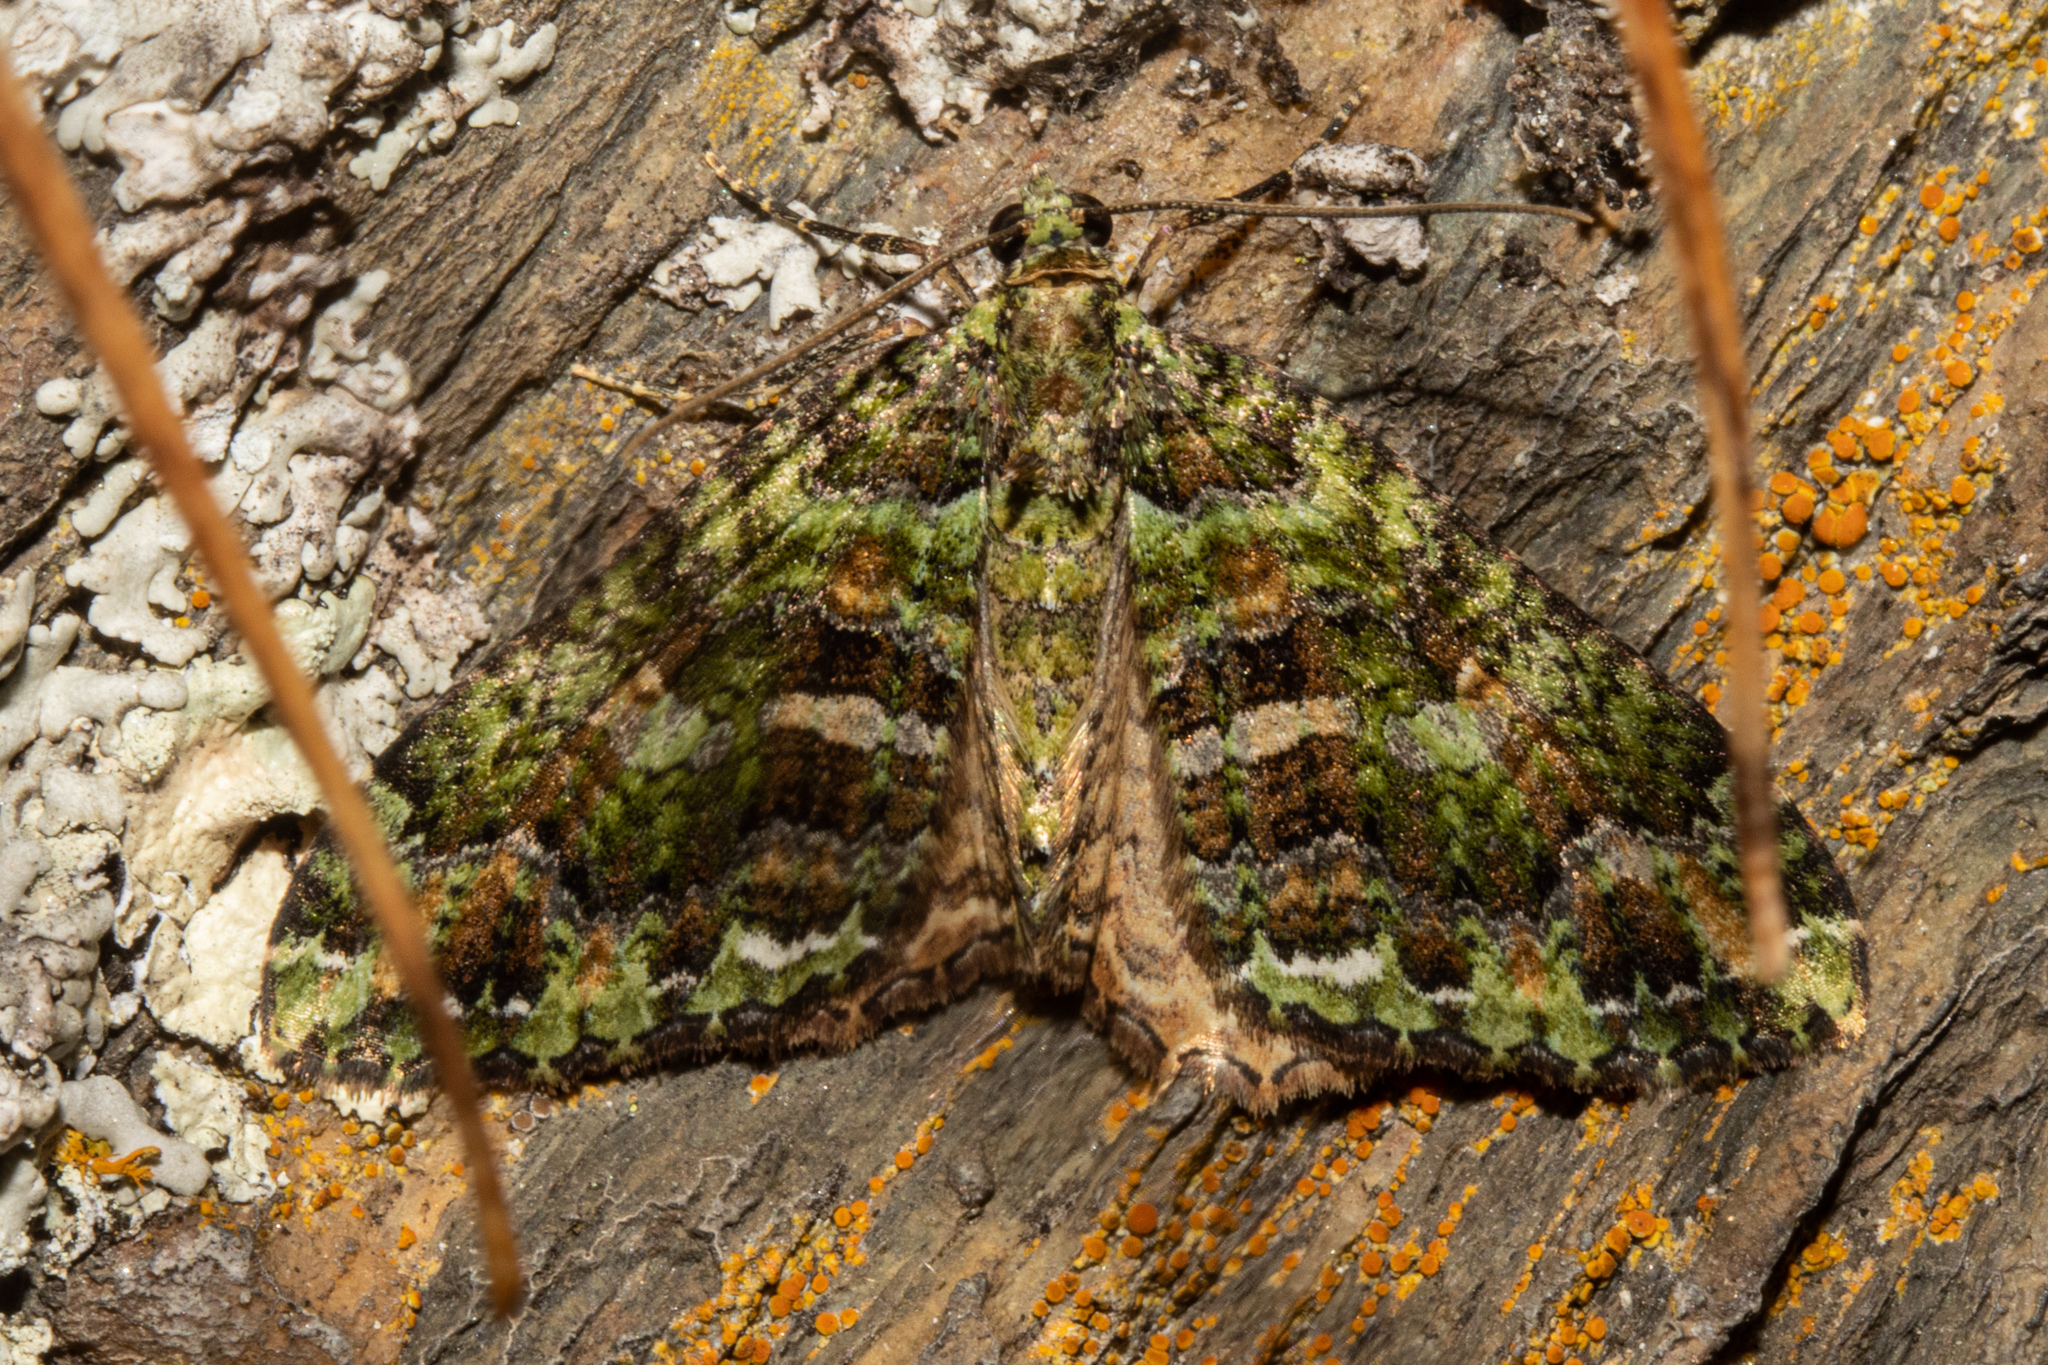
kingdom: Animalia
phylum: Arthropoda
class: Insecta
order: Lepidoptera
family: Geometridae
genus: Austrocidaria
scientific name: Austrocidaria similata
